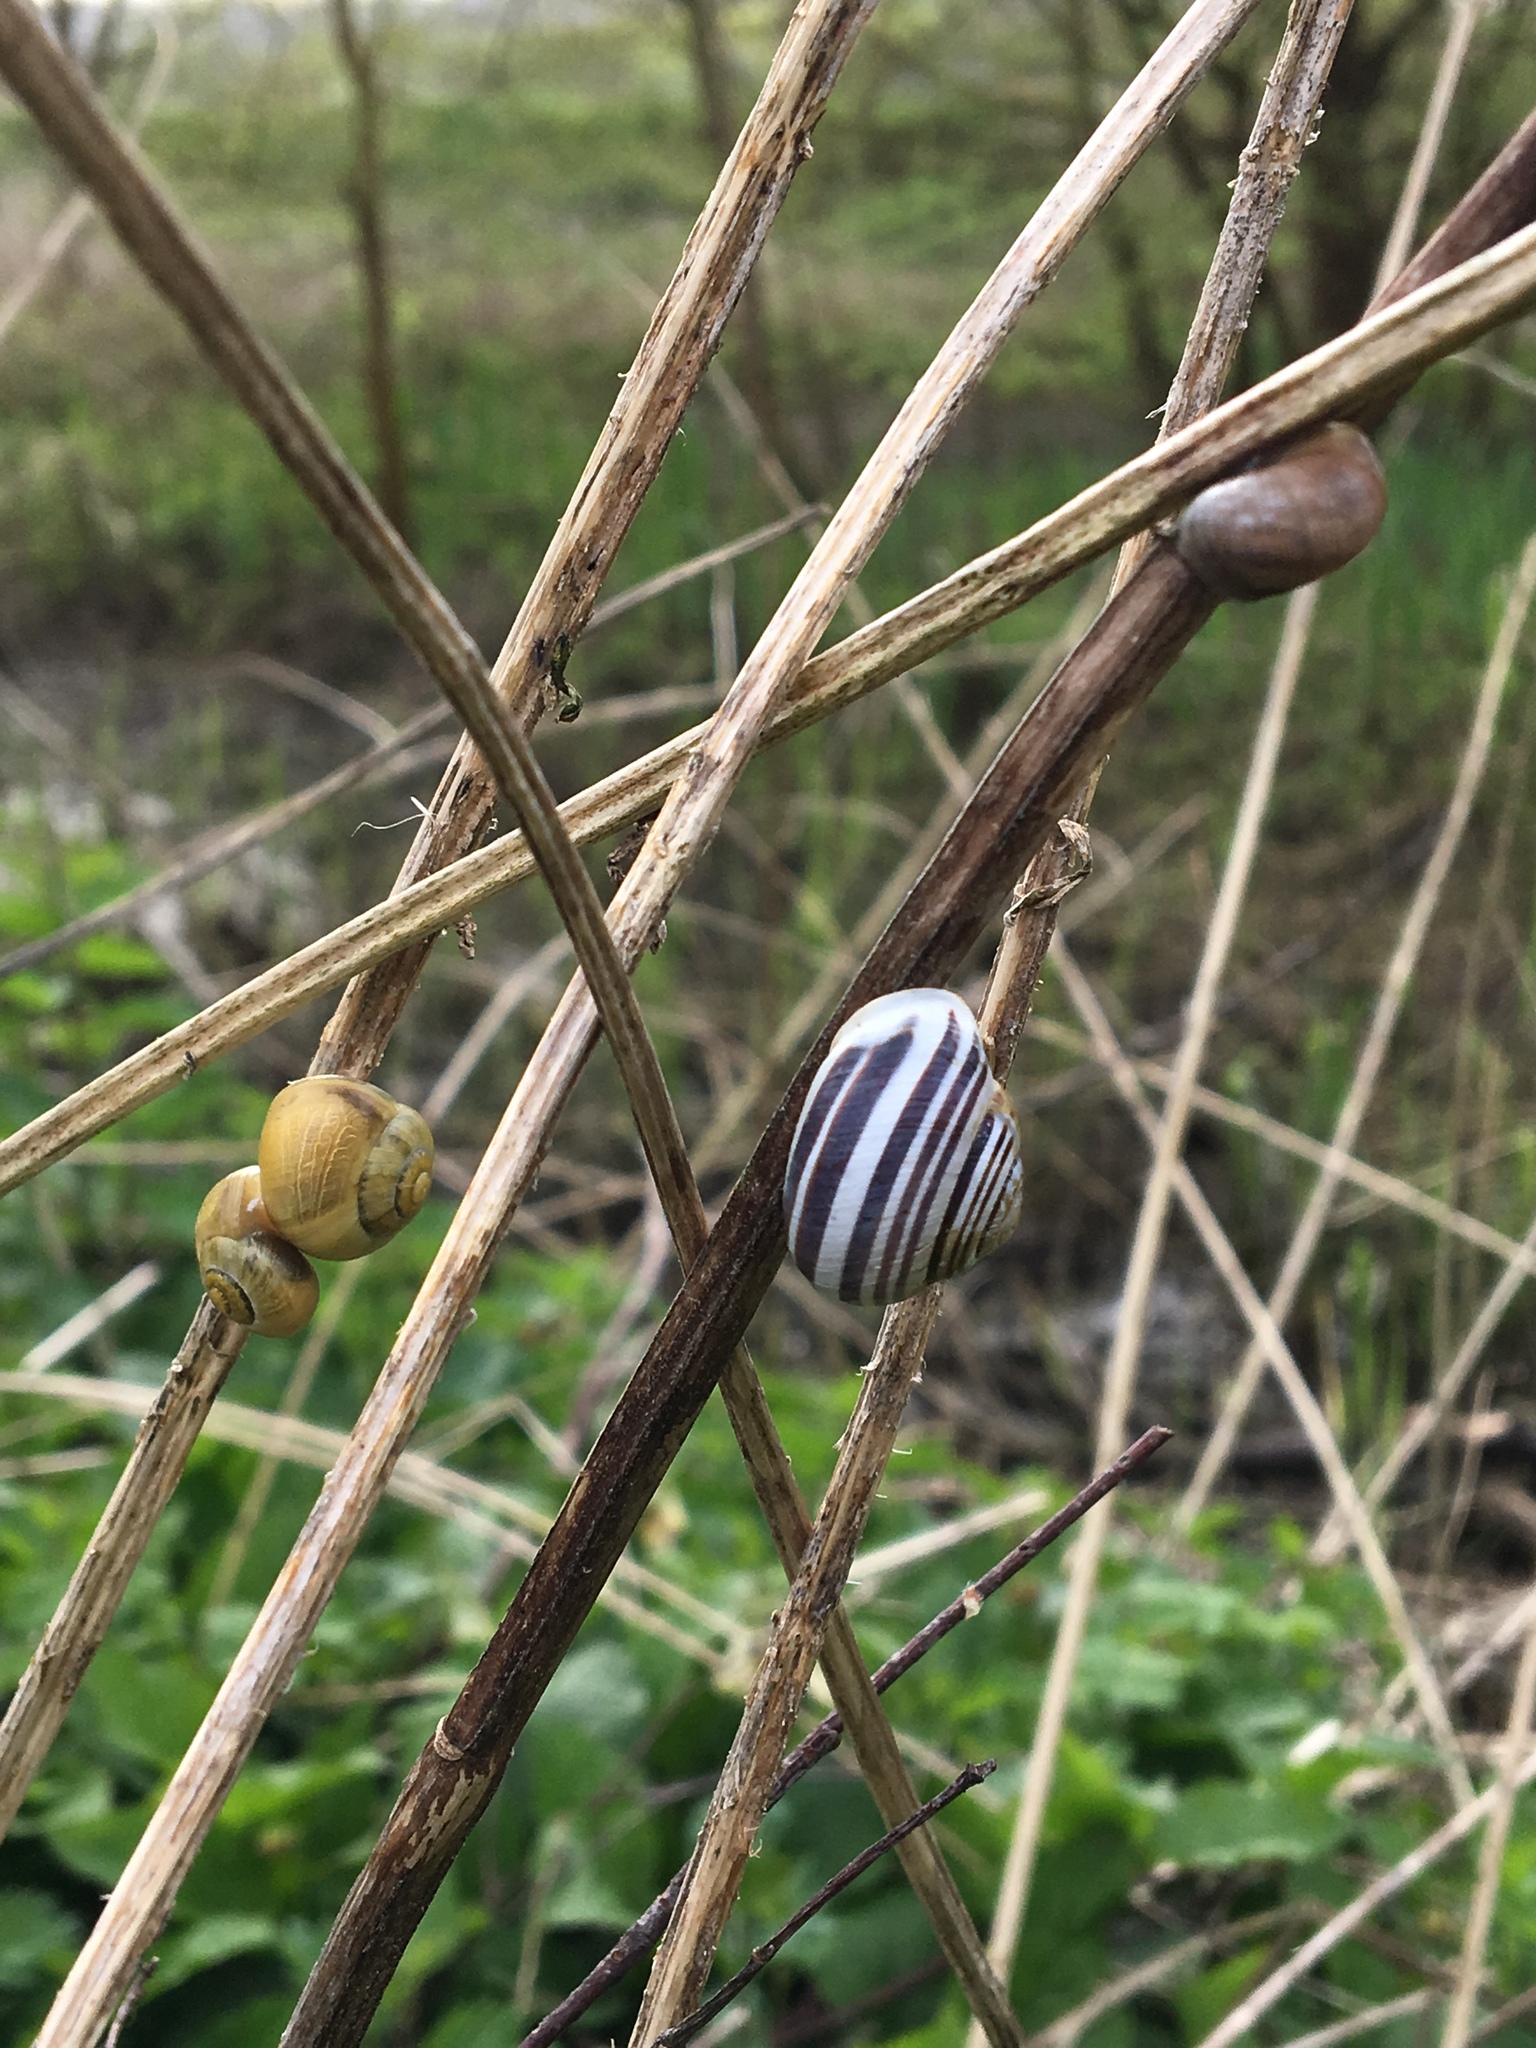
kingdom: Animalia
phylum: Mollusca
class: Gastropoda
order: Stylommatophora
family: Helicidae
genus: Cepaea
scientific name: Cepaea hortensis
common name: White-lip gardensnail
